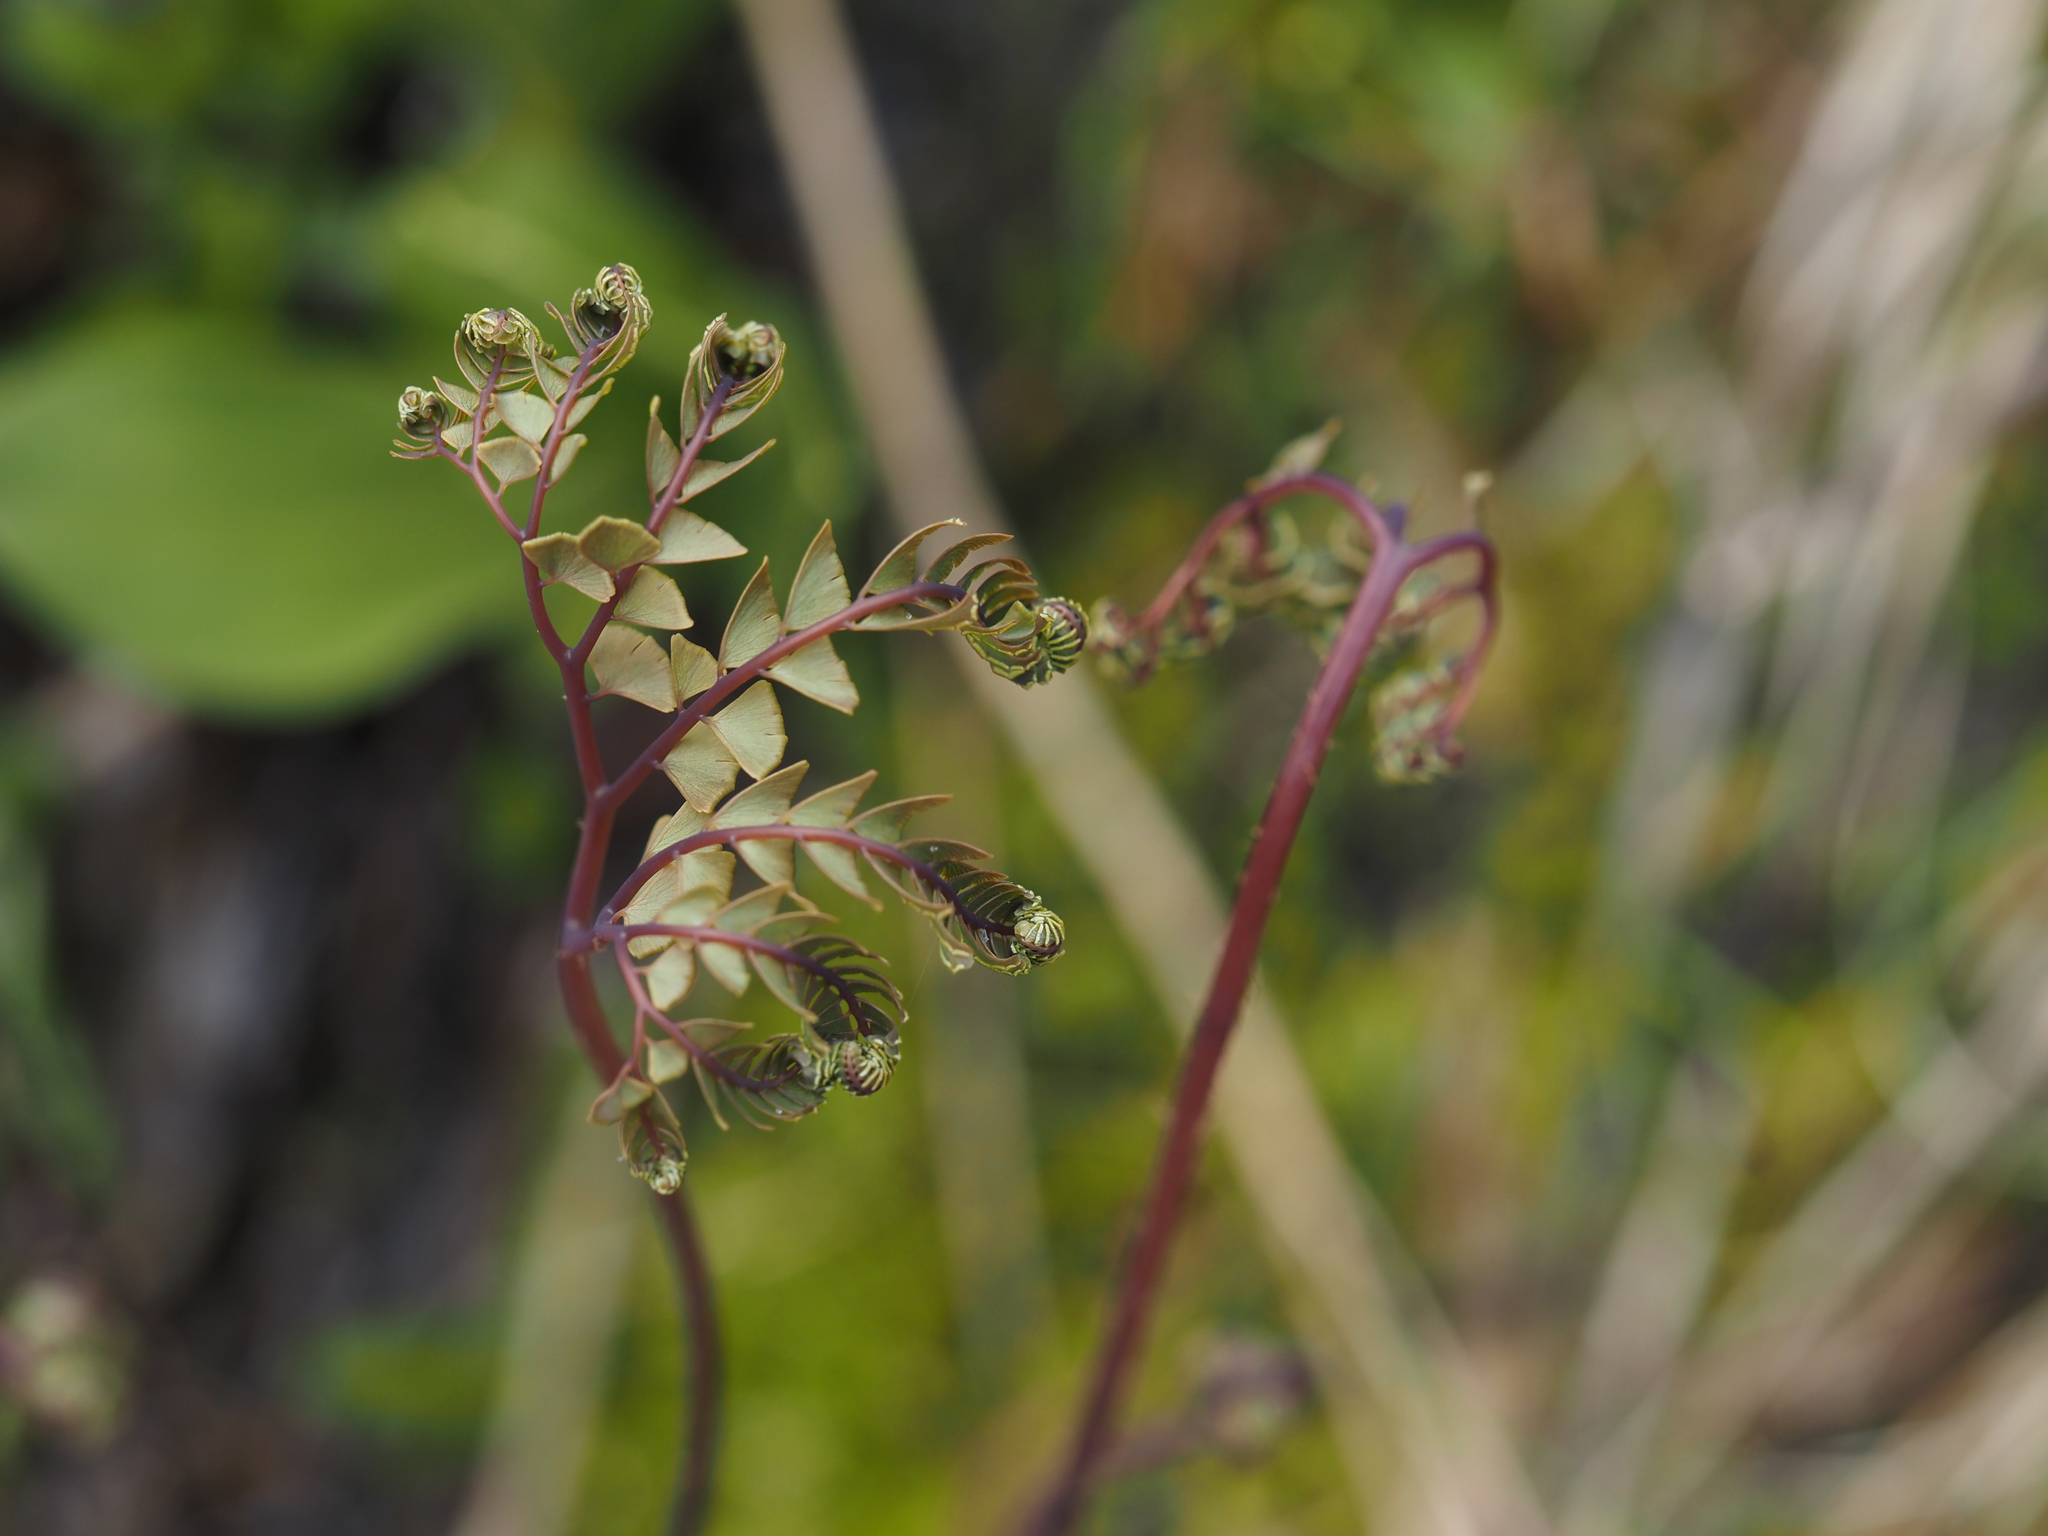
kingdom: Plantae
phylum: Tracheophyta
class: Polypodiopsida
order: Polypodiales
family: Pteridaceae
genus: Adiantum
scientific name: Adiantum aleuticum
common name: Aleutian maidenhair fern
